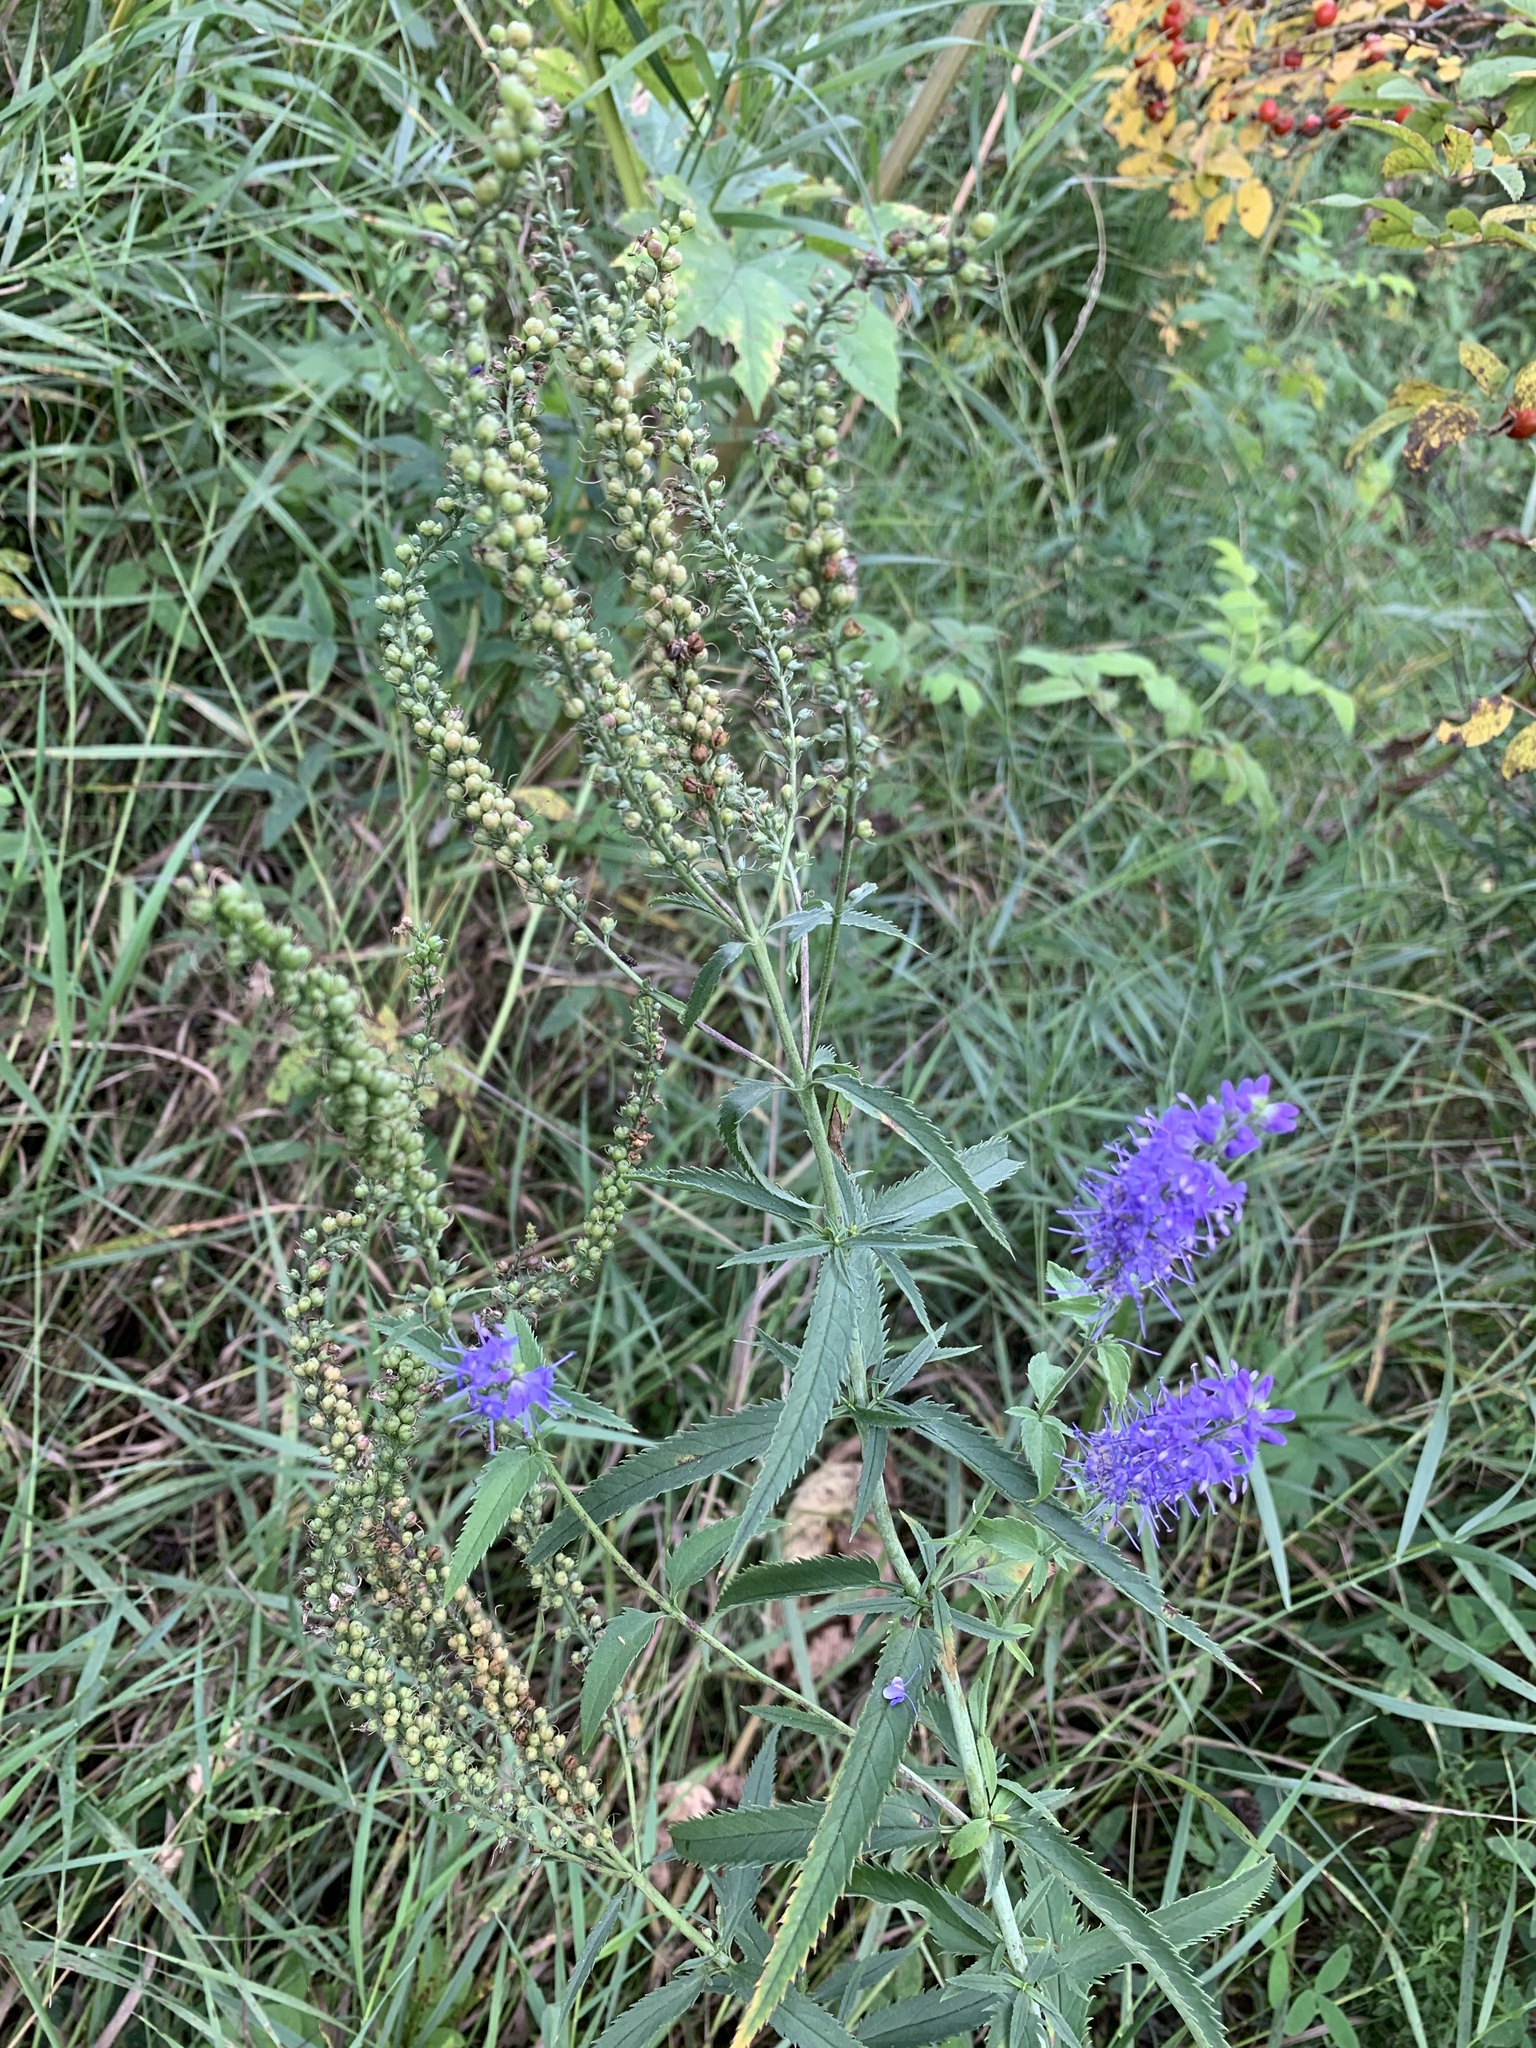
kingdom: Plantae
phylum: Tracheophyta
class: Magnoliopsida
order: Lamiales
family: Plantaginaceae
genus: Veronica
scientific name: Veronica longifolia
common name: Garden speedwell
